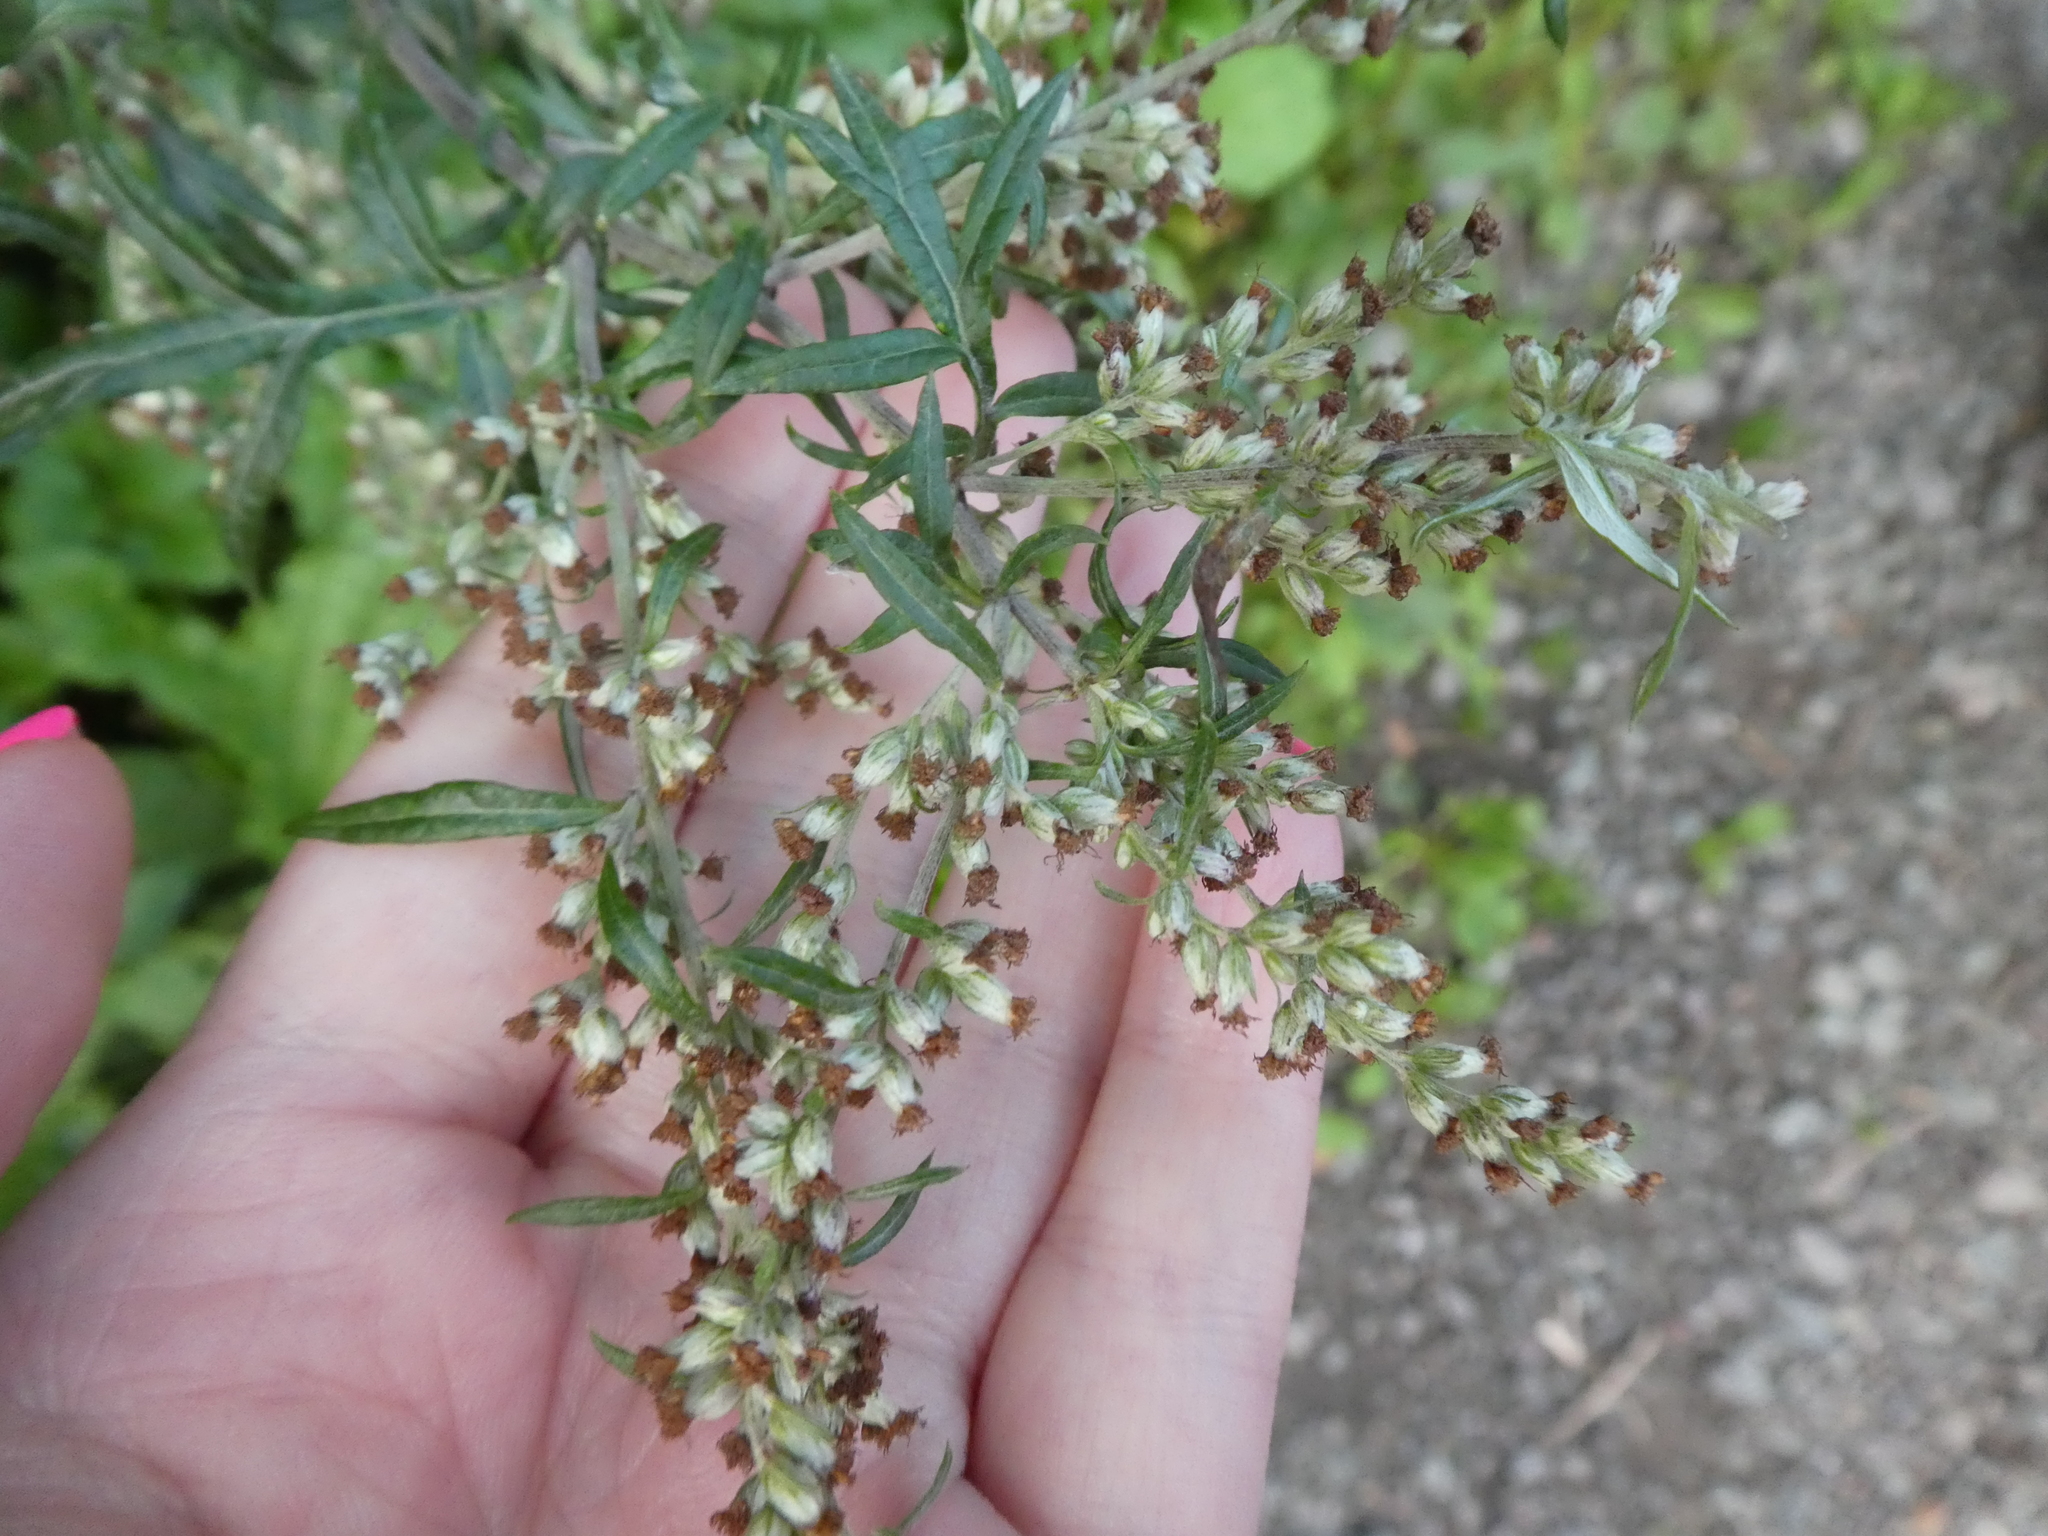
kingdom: Plantae
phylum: Tracheophyta
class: Magnoliopsida
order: Asterales
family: Asteraceae
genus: Artemisia
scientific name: Artemisia vulgaris
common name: Mugwort
